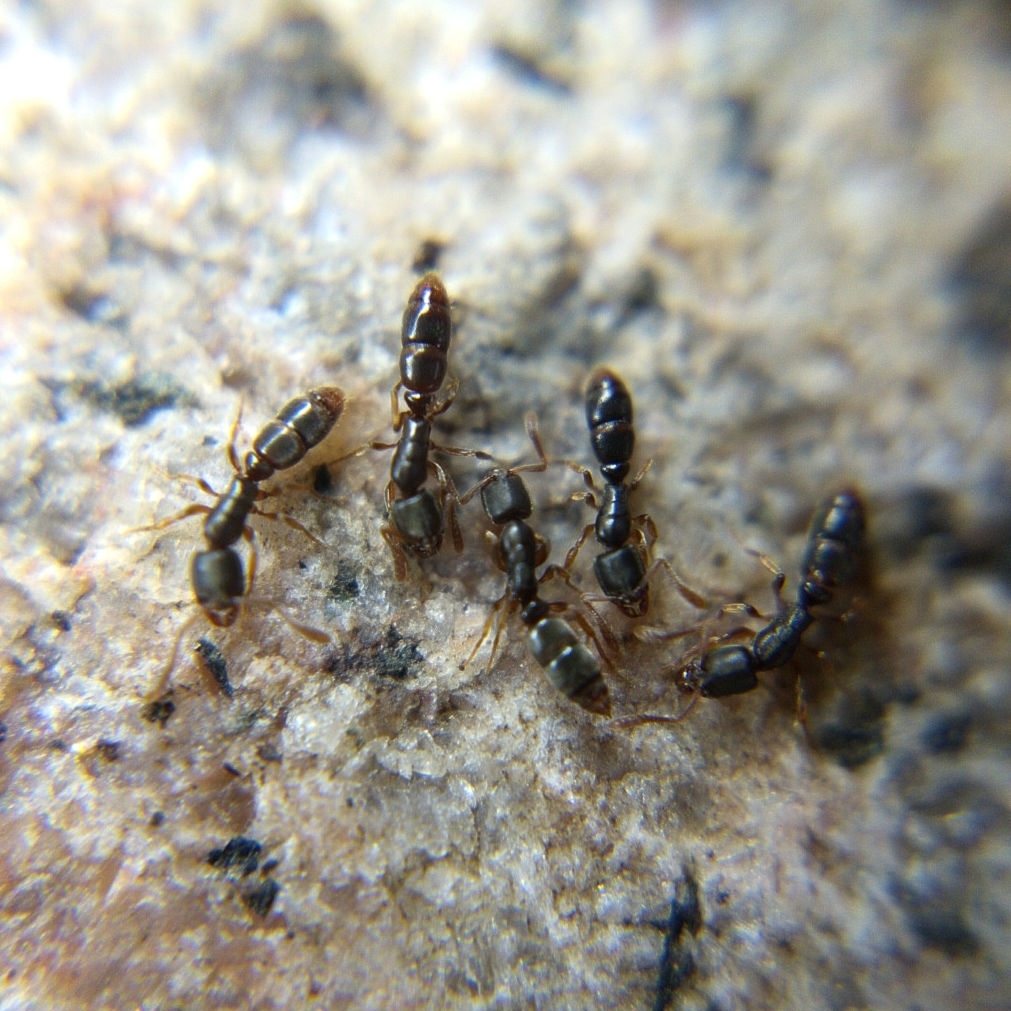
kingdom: Animalia
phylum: Arthropoda
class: Insecta
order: Hymenoptera
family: Formicidae
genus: Ponera
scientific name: Ponera pennsylvanica
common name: Pennsylvania ponera
